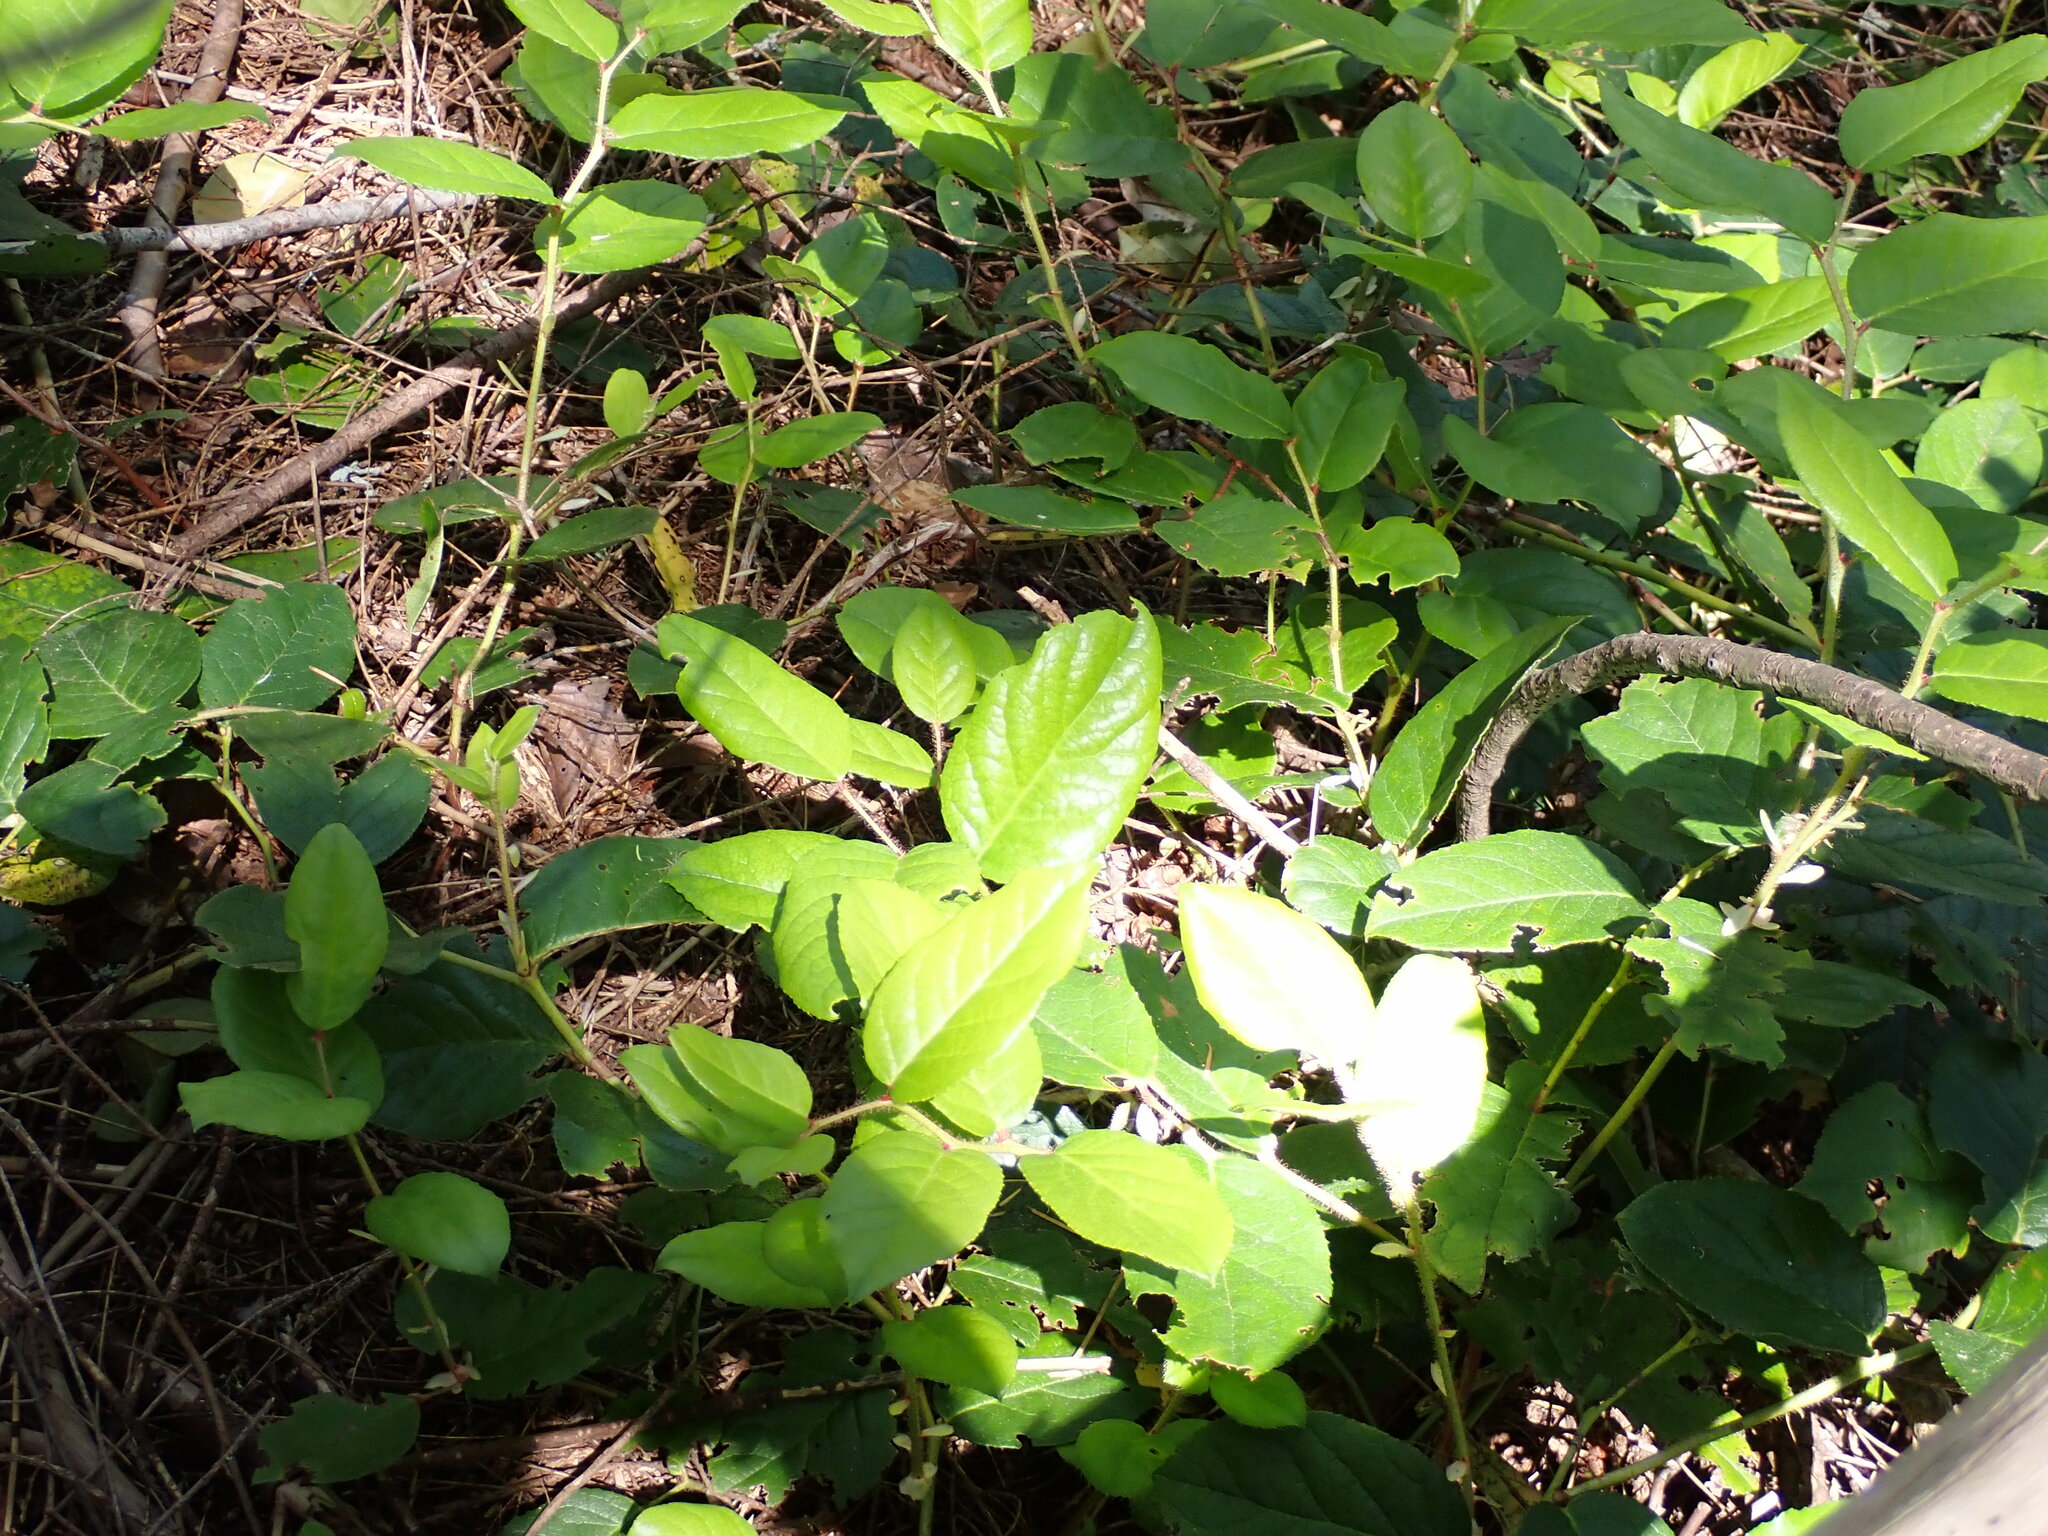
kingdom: Plantae
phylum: Tracheophyta
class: Magnoliopsida
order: Ericales
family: Ericaceae
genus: Gaultheria
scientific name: Gaultheria shallon
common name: Shallon
